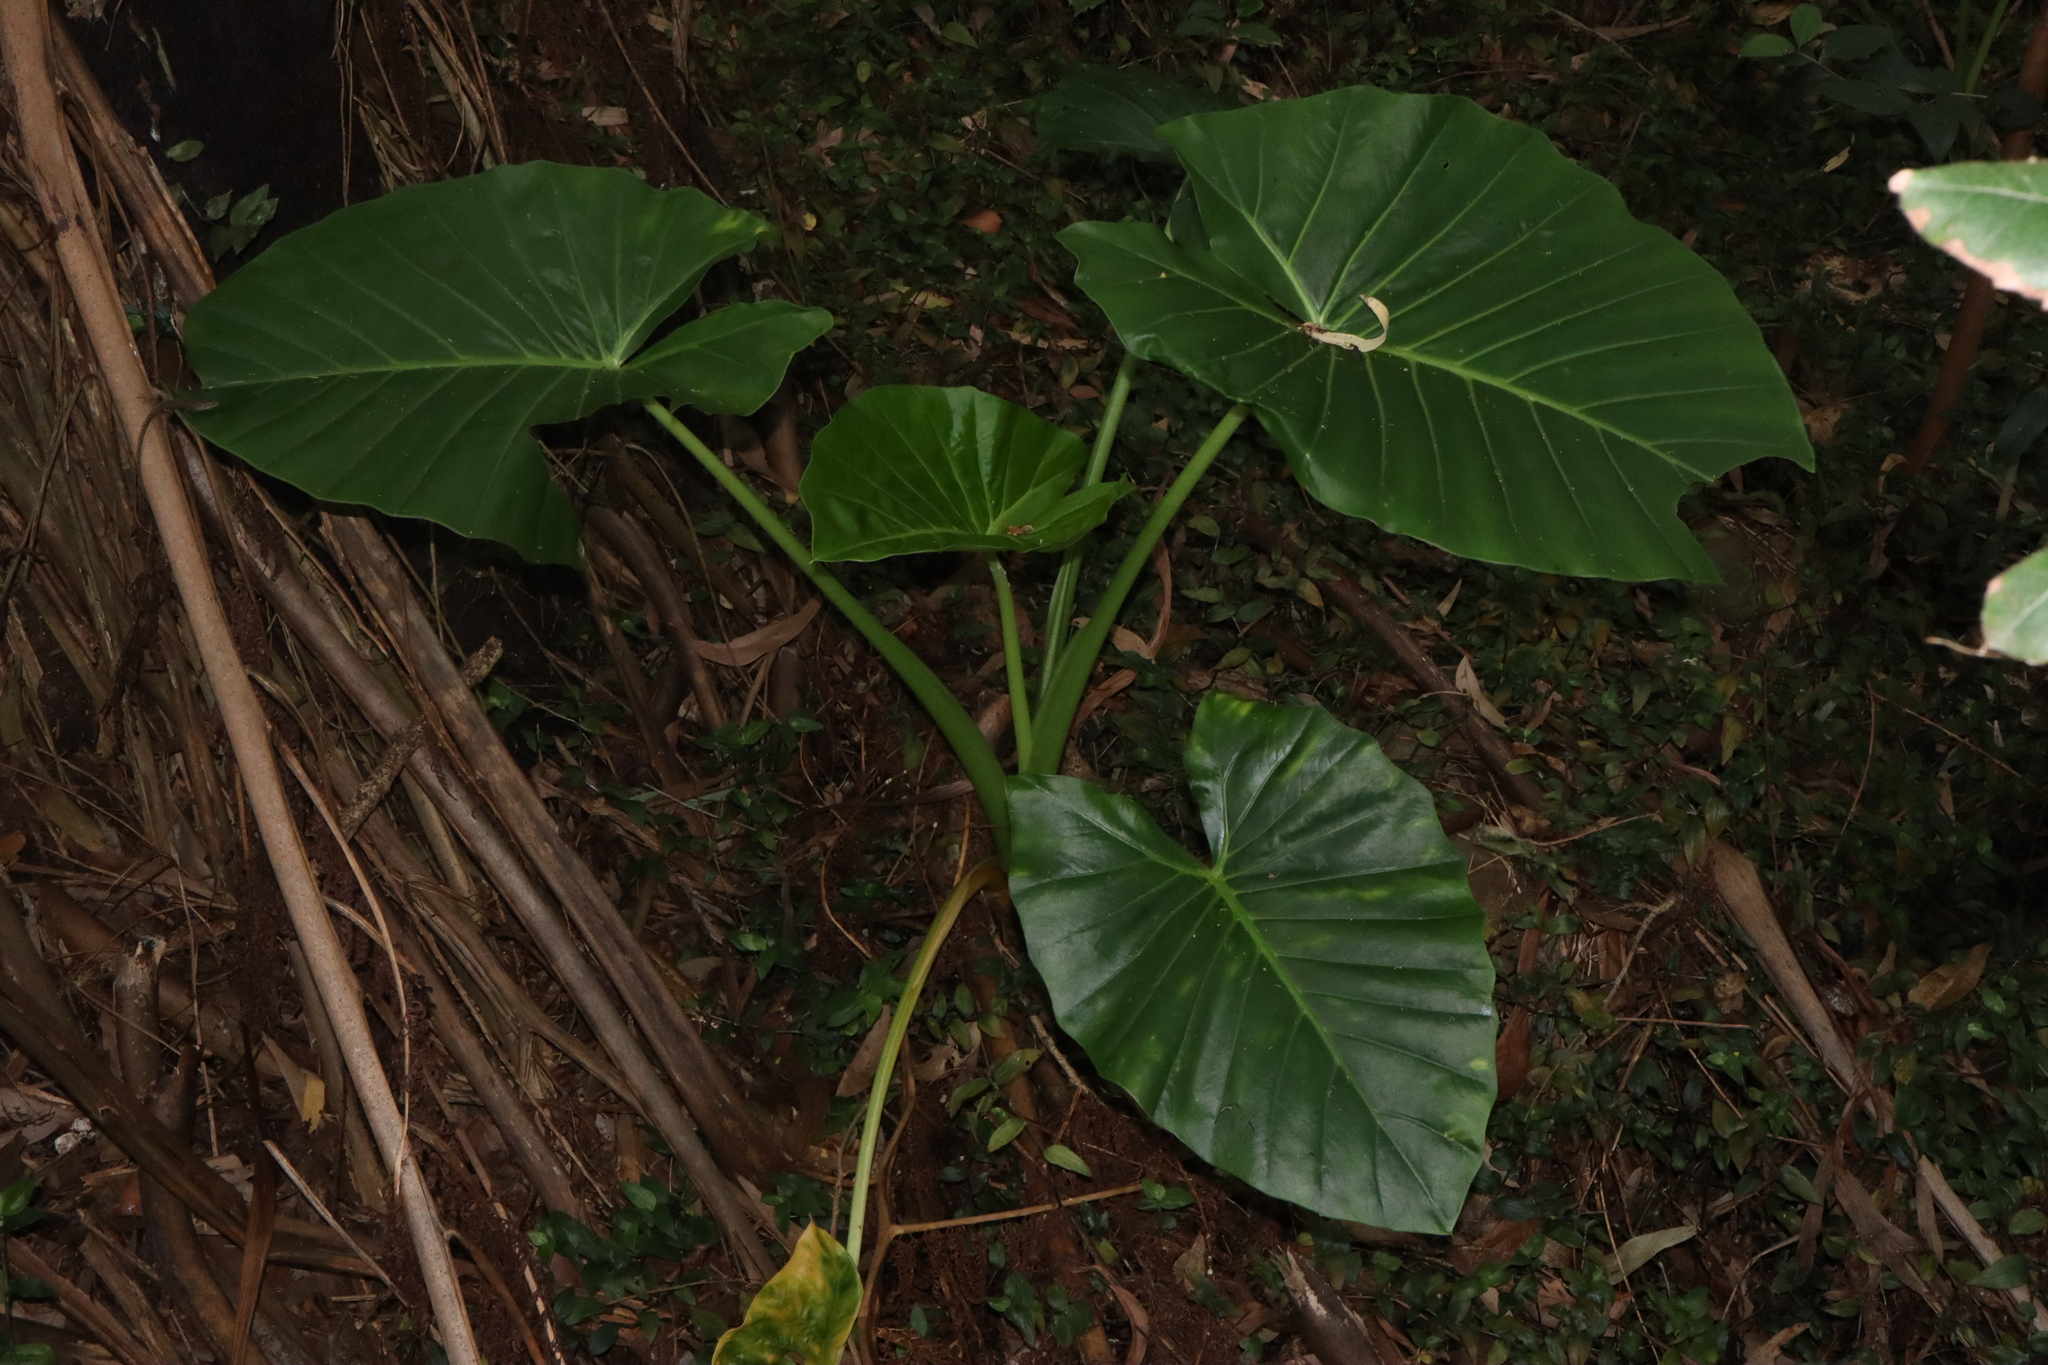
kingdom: Plantae
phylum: Tracheophyta
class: Liliopsida
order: Alismatales
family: Araceae
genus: Alocasia
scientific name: Alocasia brisbanensis
